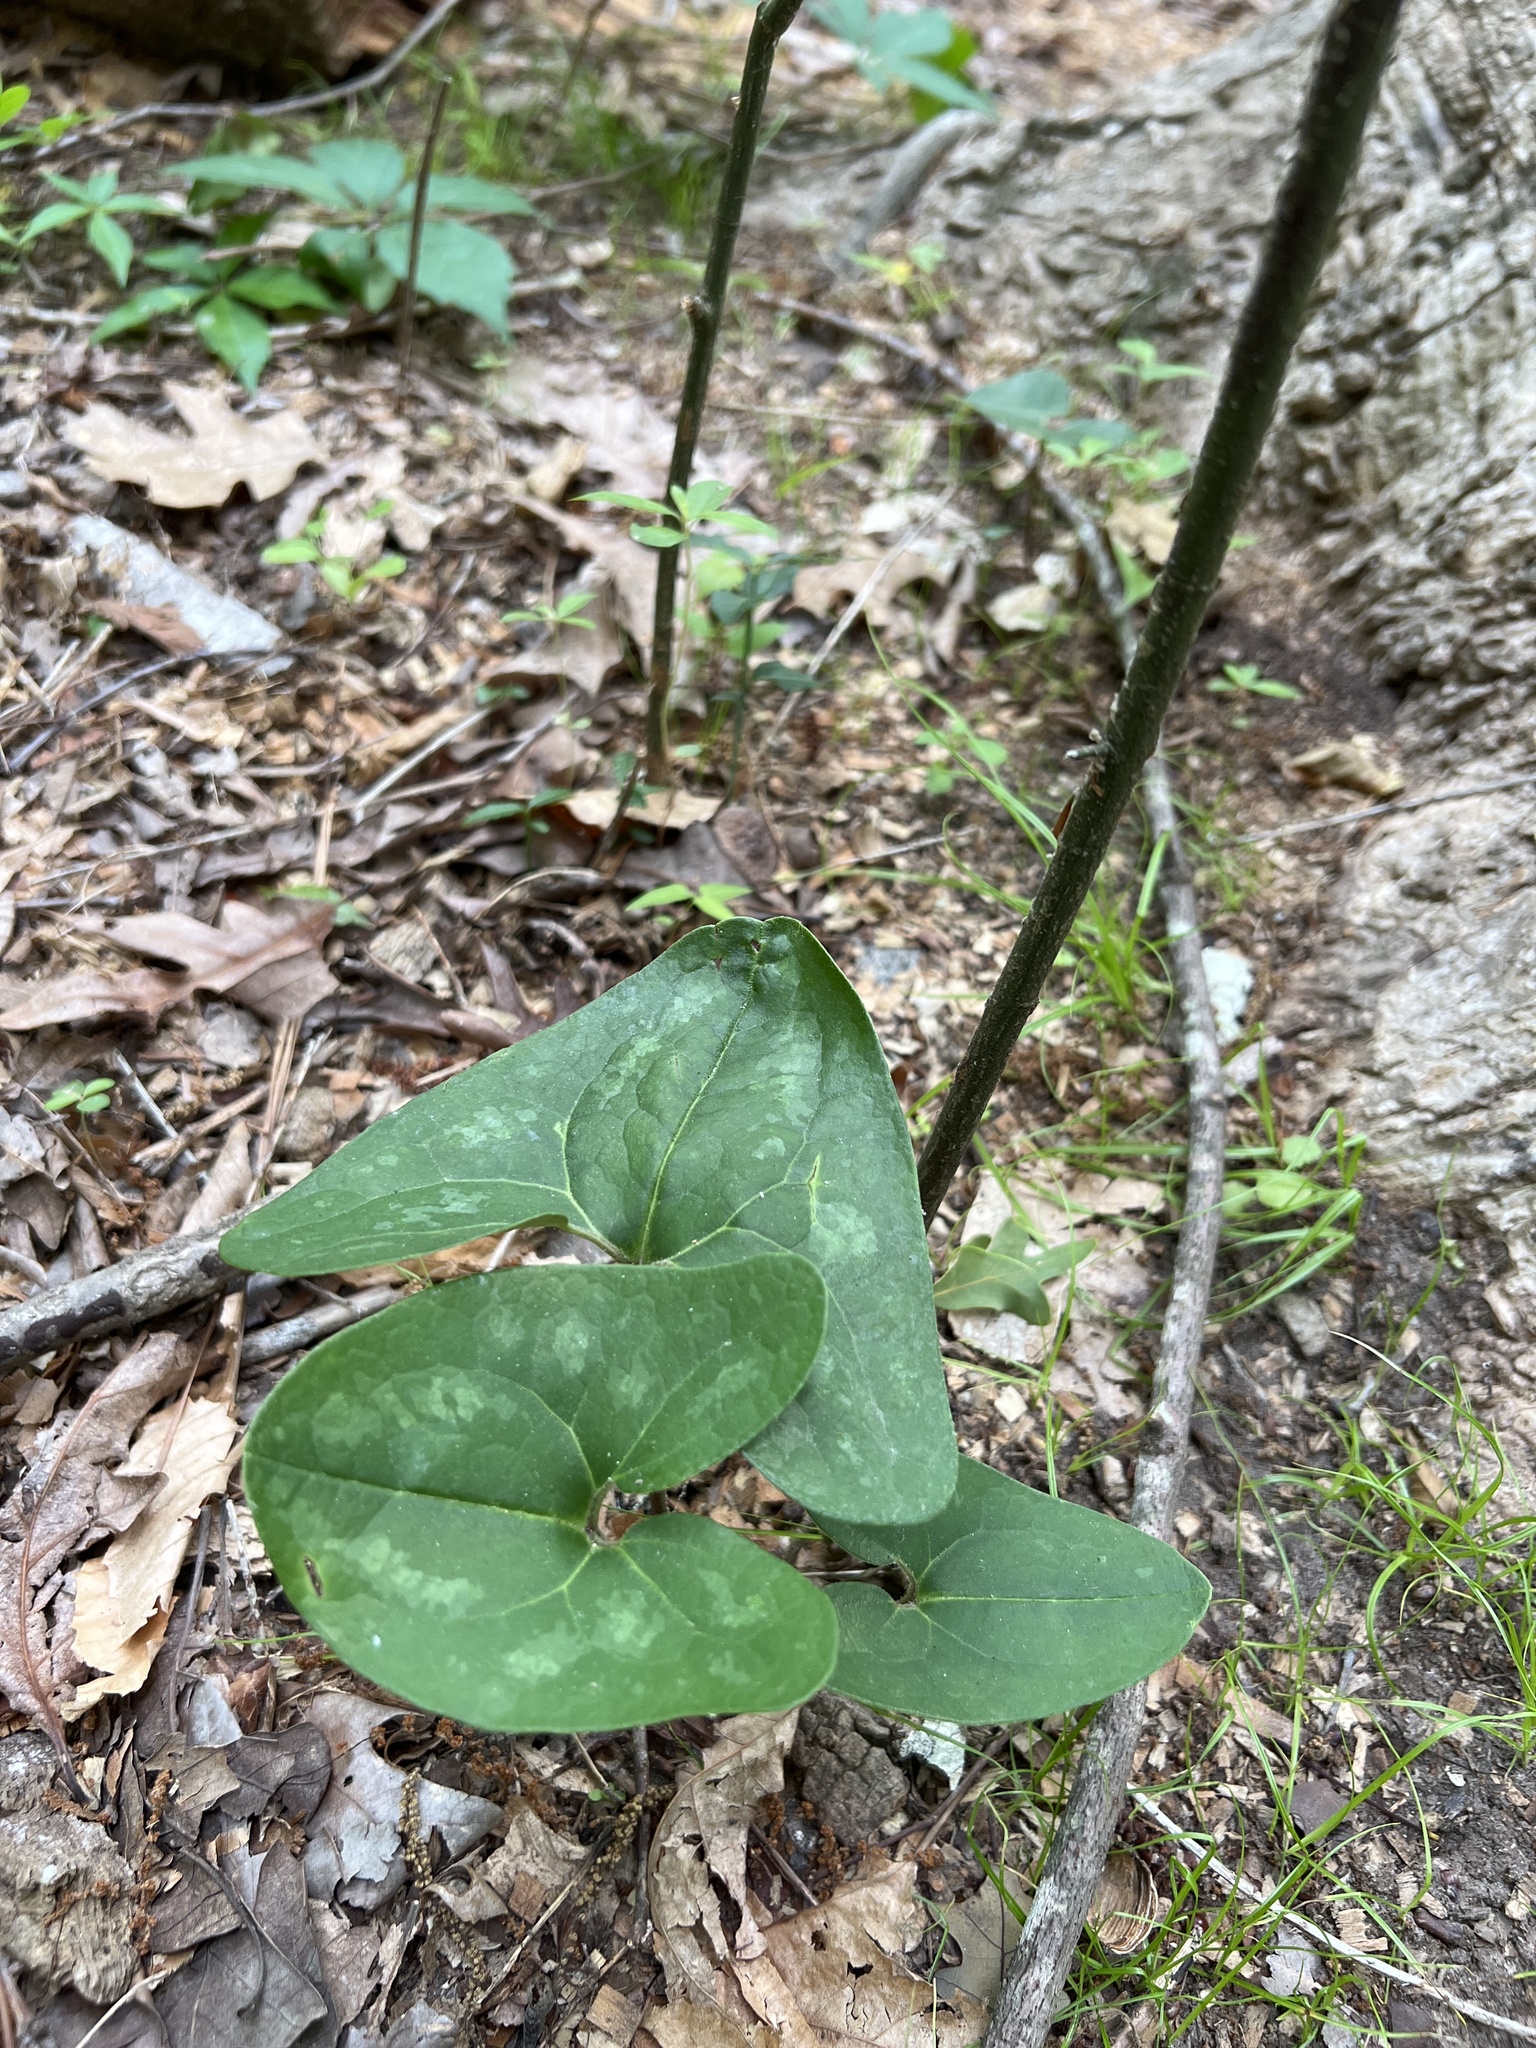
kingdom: Plantae
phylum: Tracheophyta
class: Magnoliopsida
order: Piperales
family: Aristolochiaceae
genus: Hexastylis
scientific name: Hexastylis arifolia
